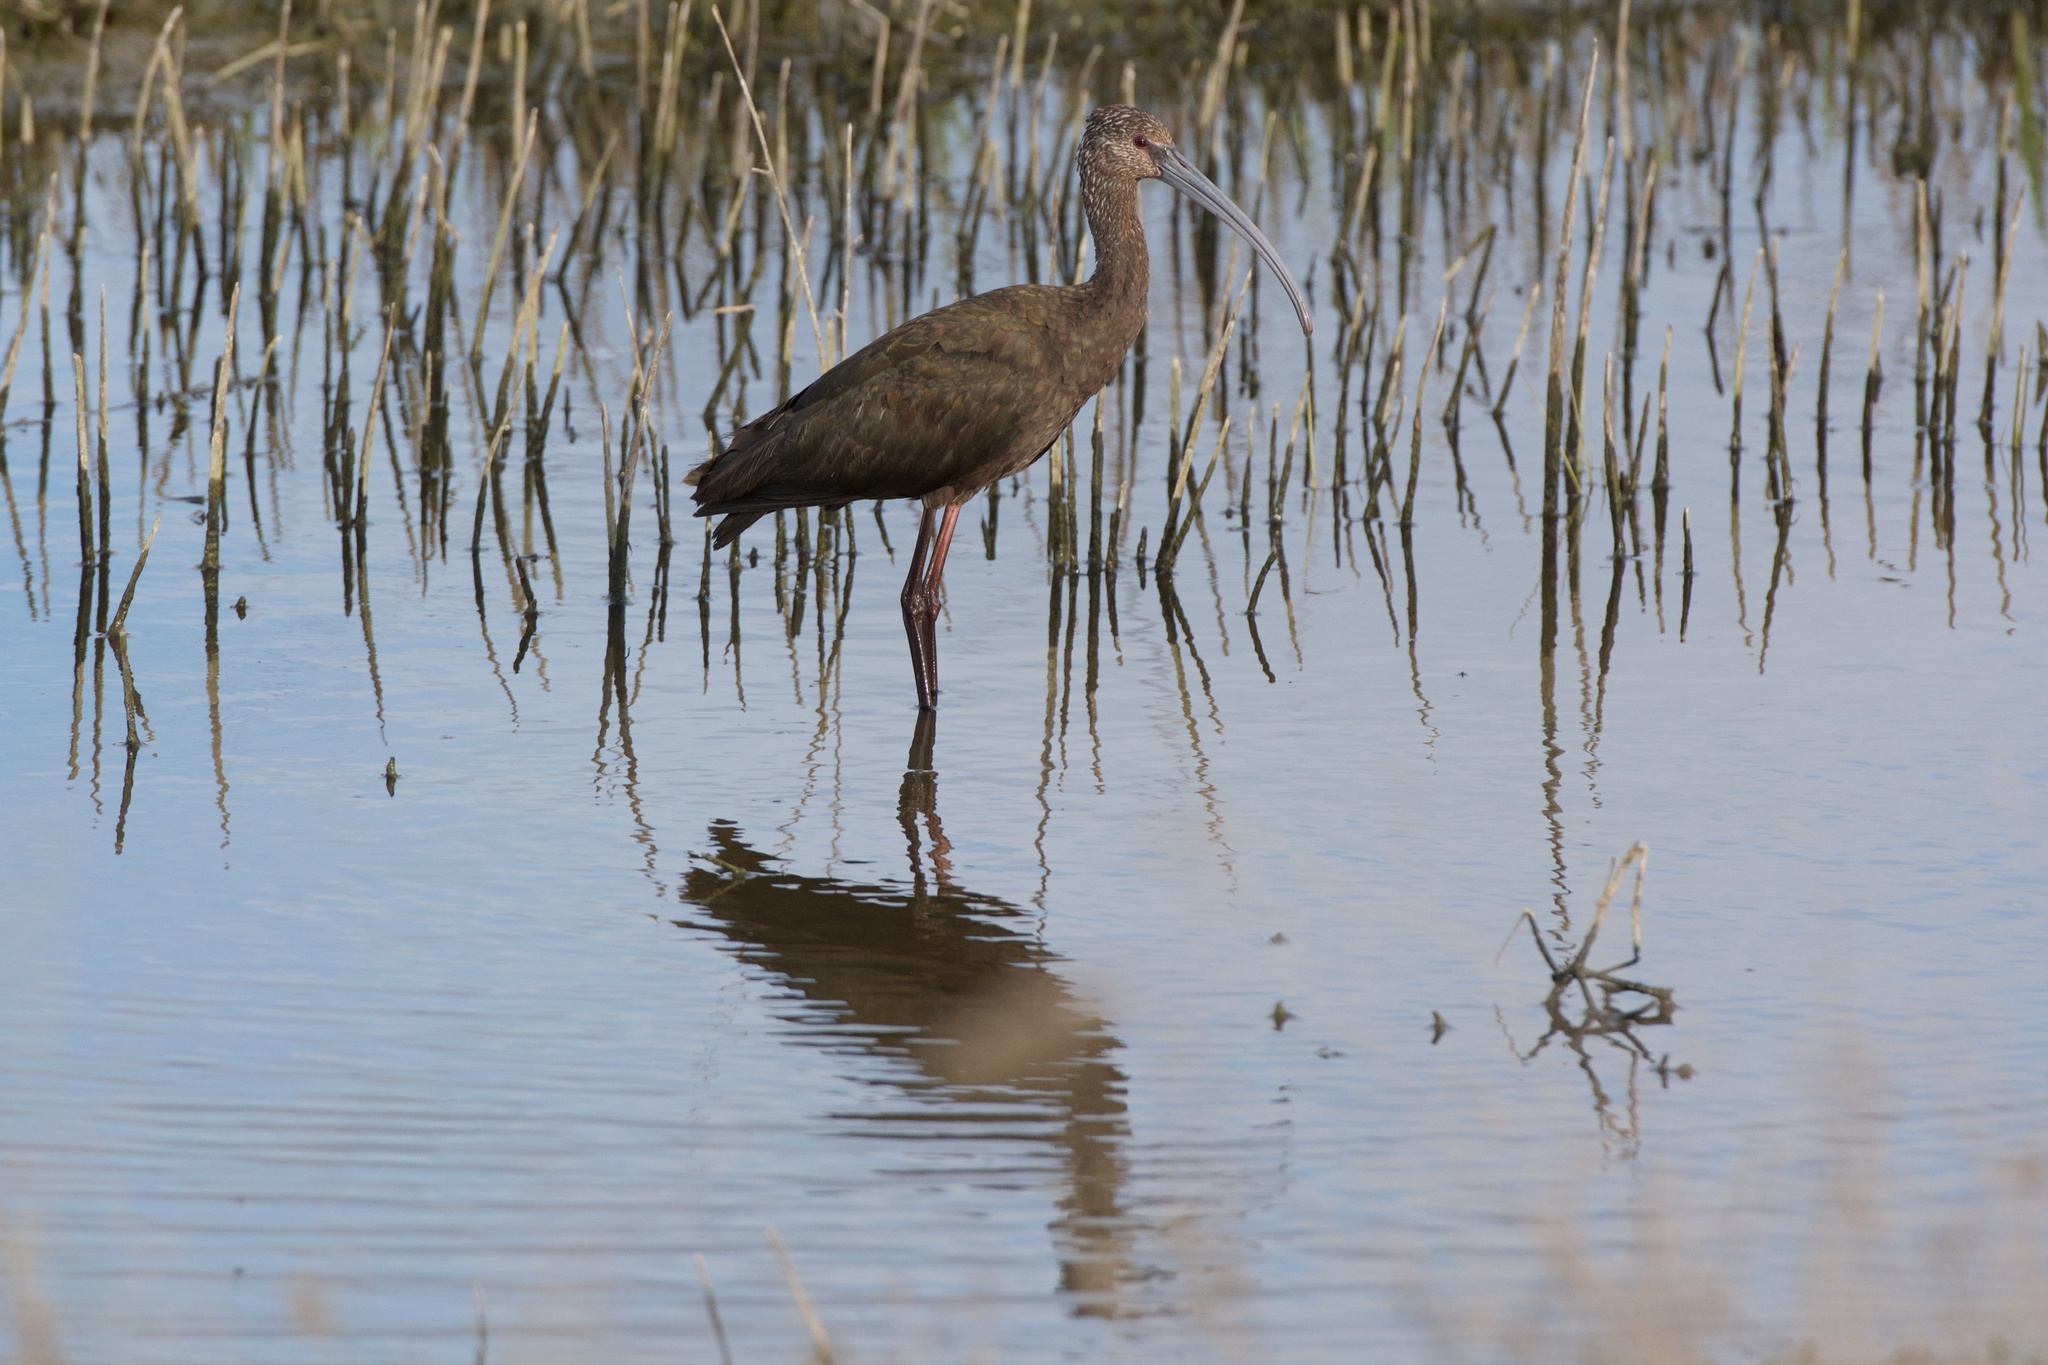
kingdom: Animalia
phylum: Chordata
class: Aves
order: Pelecaniformes
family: Threskiornithidae
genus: Plegadis
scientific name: Plegadis chihi
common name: White-faced ibis
